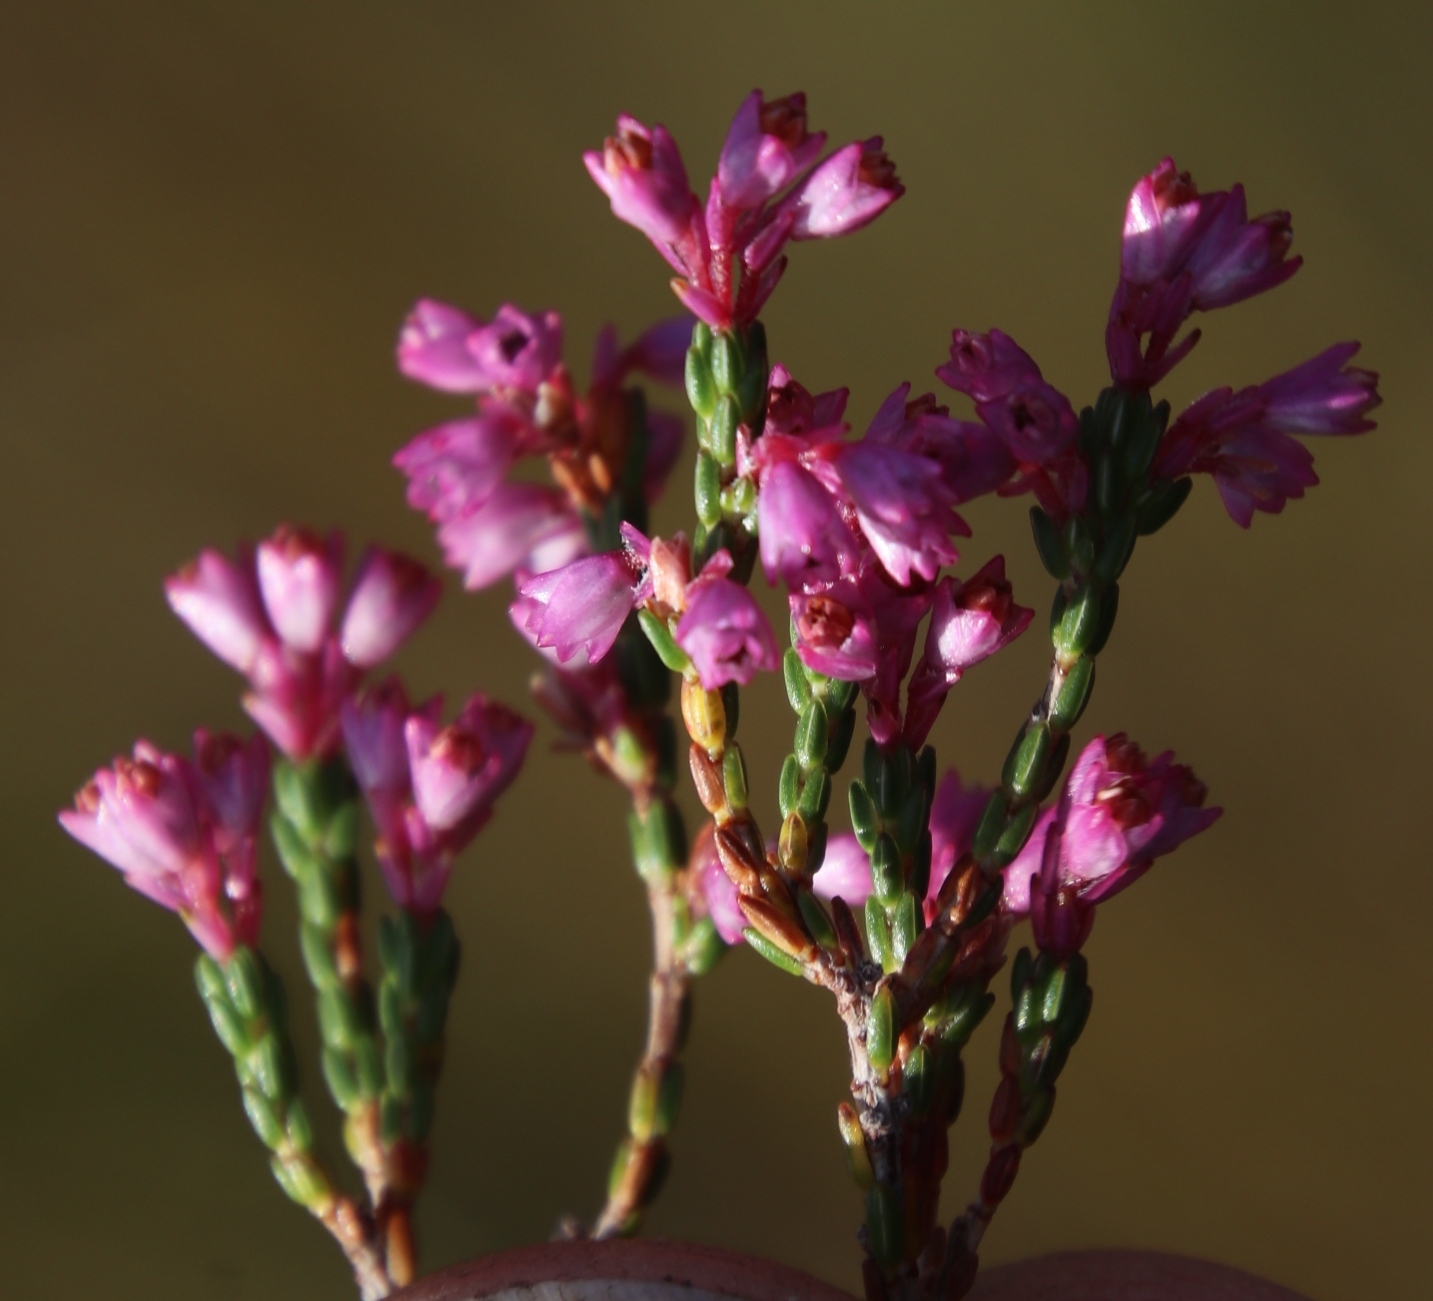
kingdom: Plantae
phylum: Tracheophyta
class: Magnoliopsida
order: Ericales
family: Ericaceae
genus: Erica
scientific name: Erica gnaphaloides
